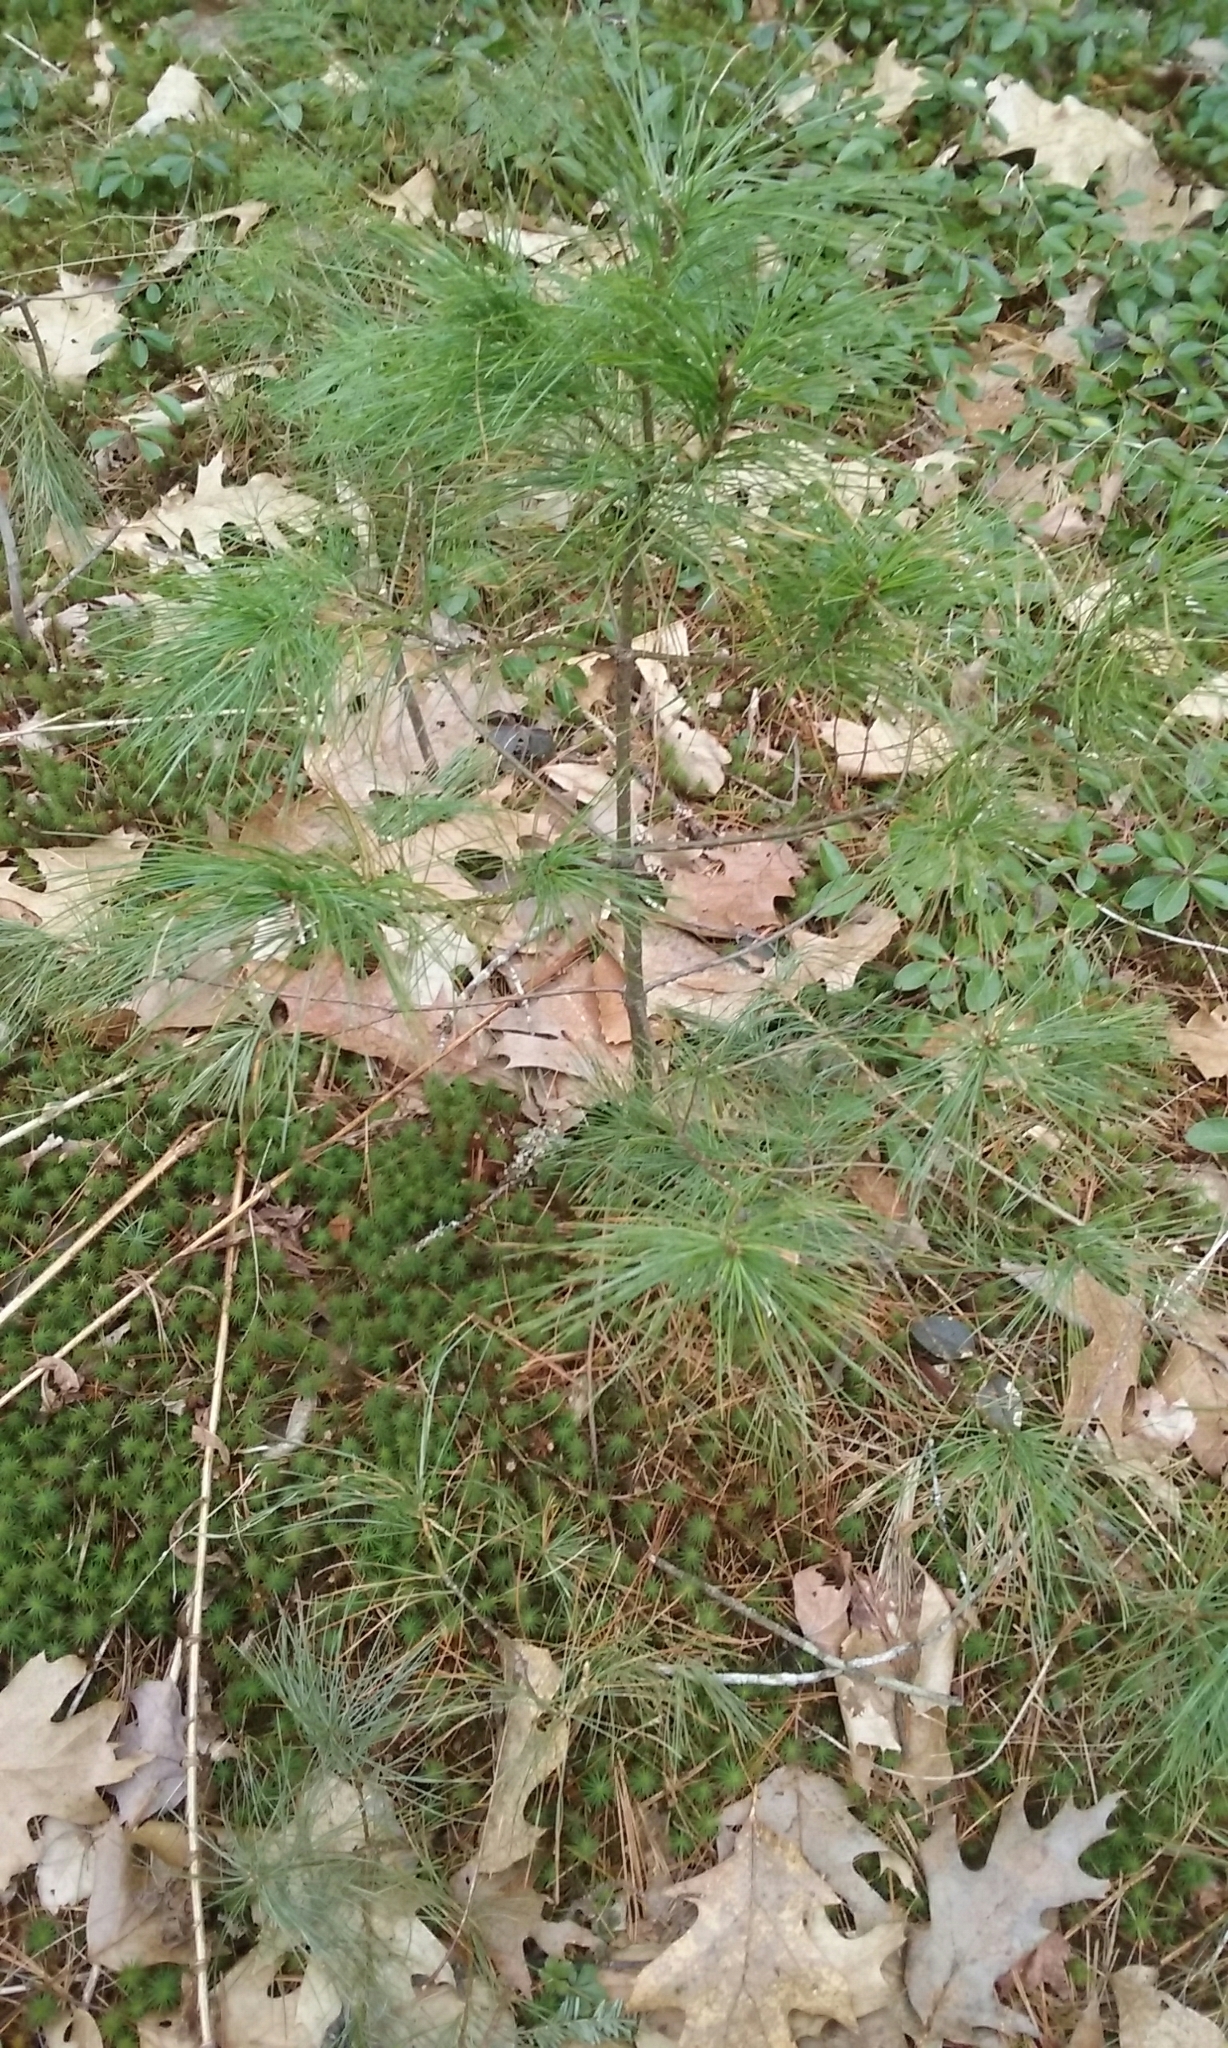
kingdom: Plantae
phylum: Tracheophyta
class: Pinopsida
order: Pinales
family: Pinaceae
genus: Pinus
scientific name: Pinus strobus
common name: Weymouth pine
